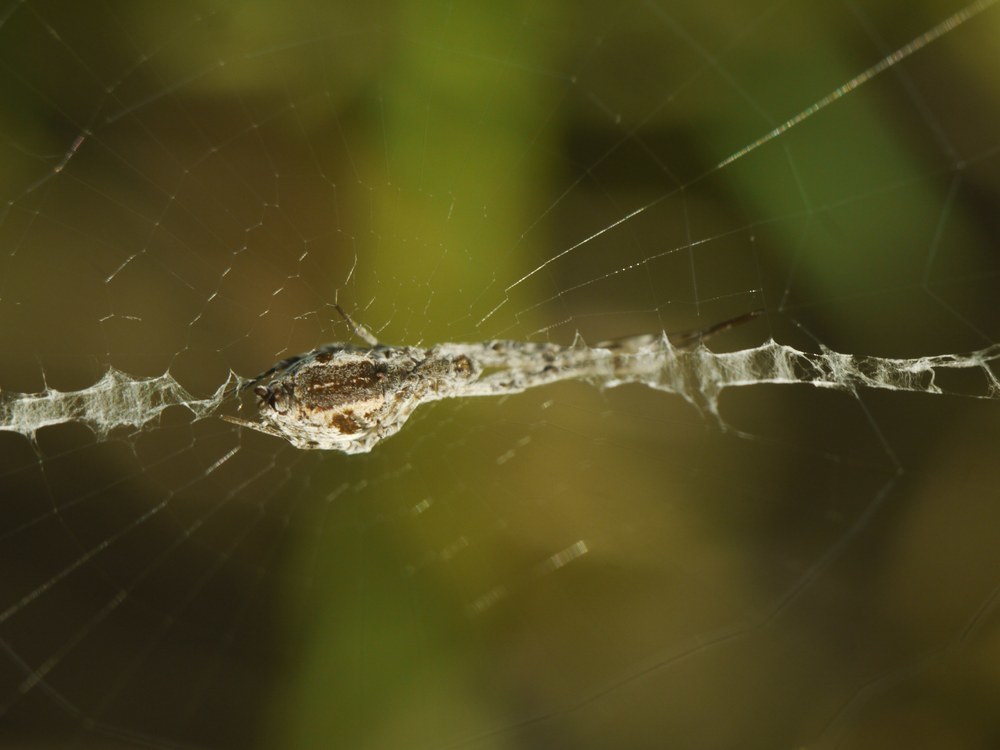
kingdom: Animalia
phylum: Arthropoda
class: Arachnida
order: Araneae
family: Uloboridae
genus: Uloborus
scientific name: Uloborus walckenaerius
